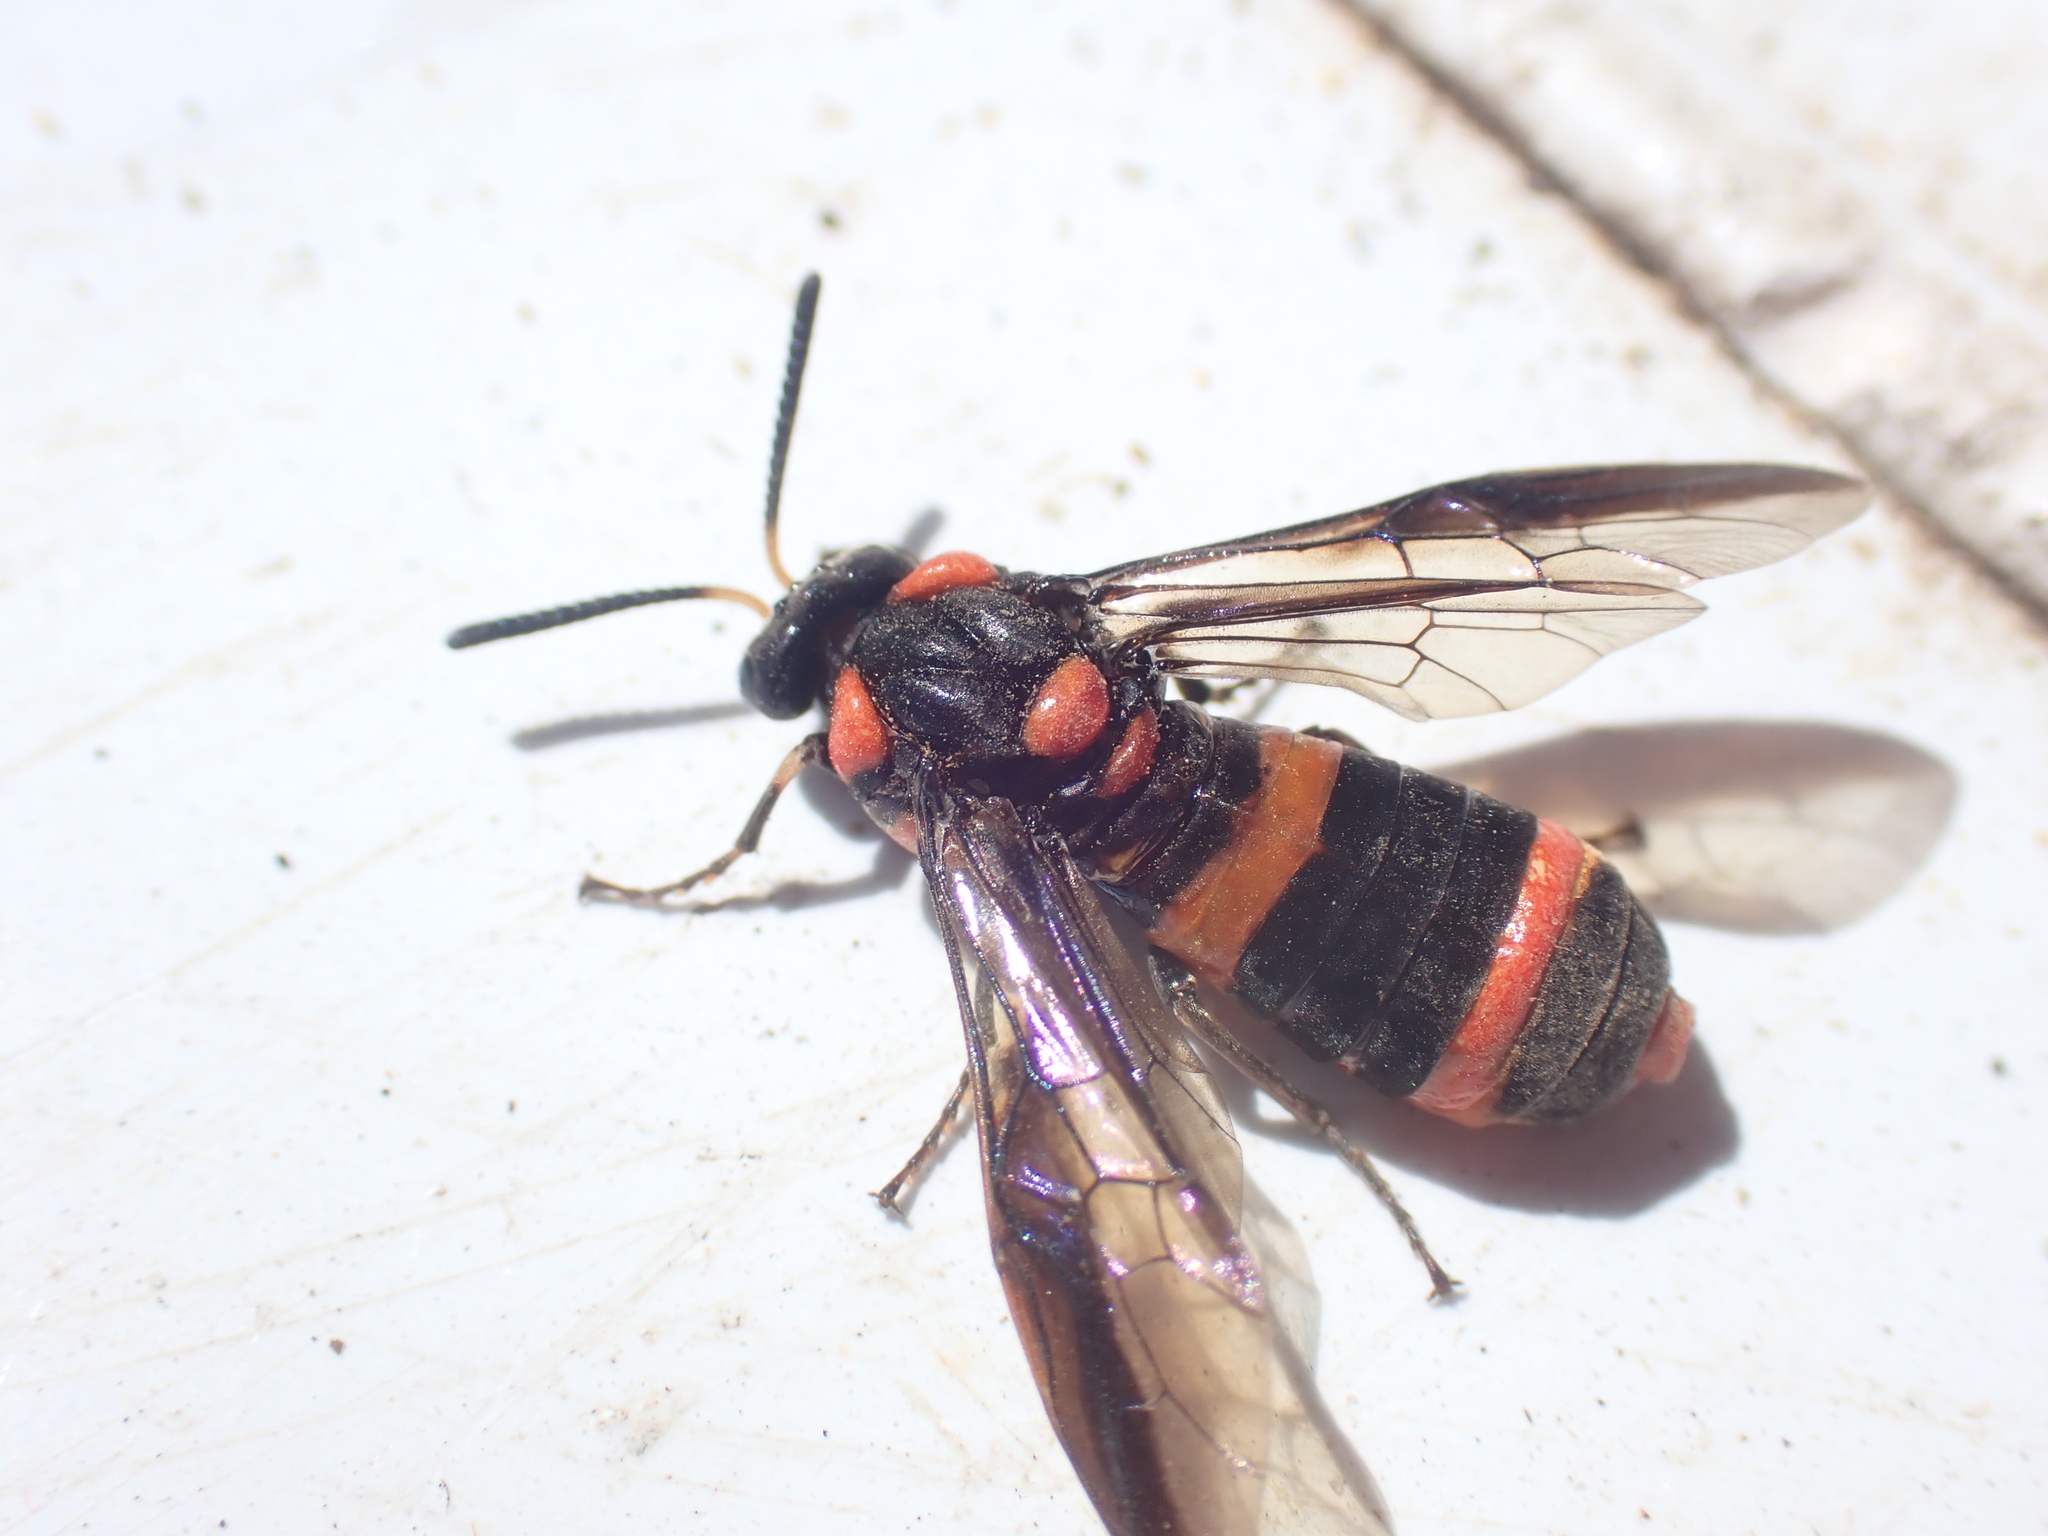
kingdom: Animalia
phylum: Arthropoda
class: Insecta
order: Hymenoptera
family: Pergidae
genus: Pterygophorus
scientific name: Pterygophorus
